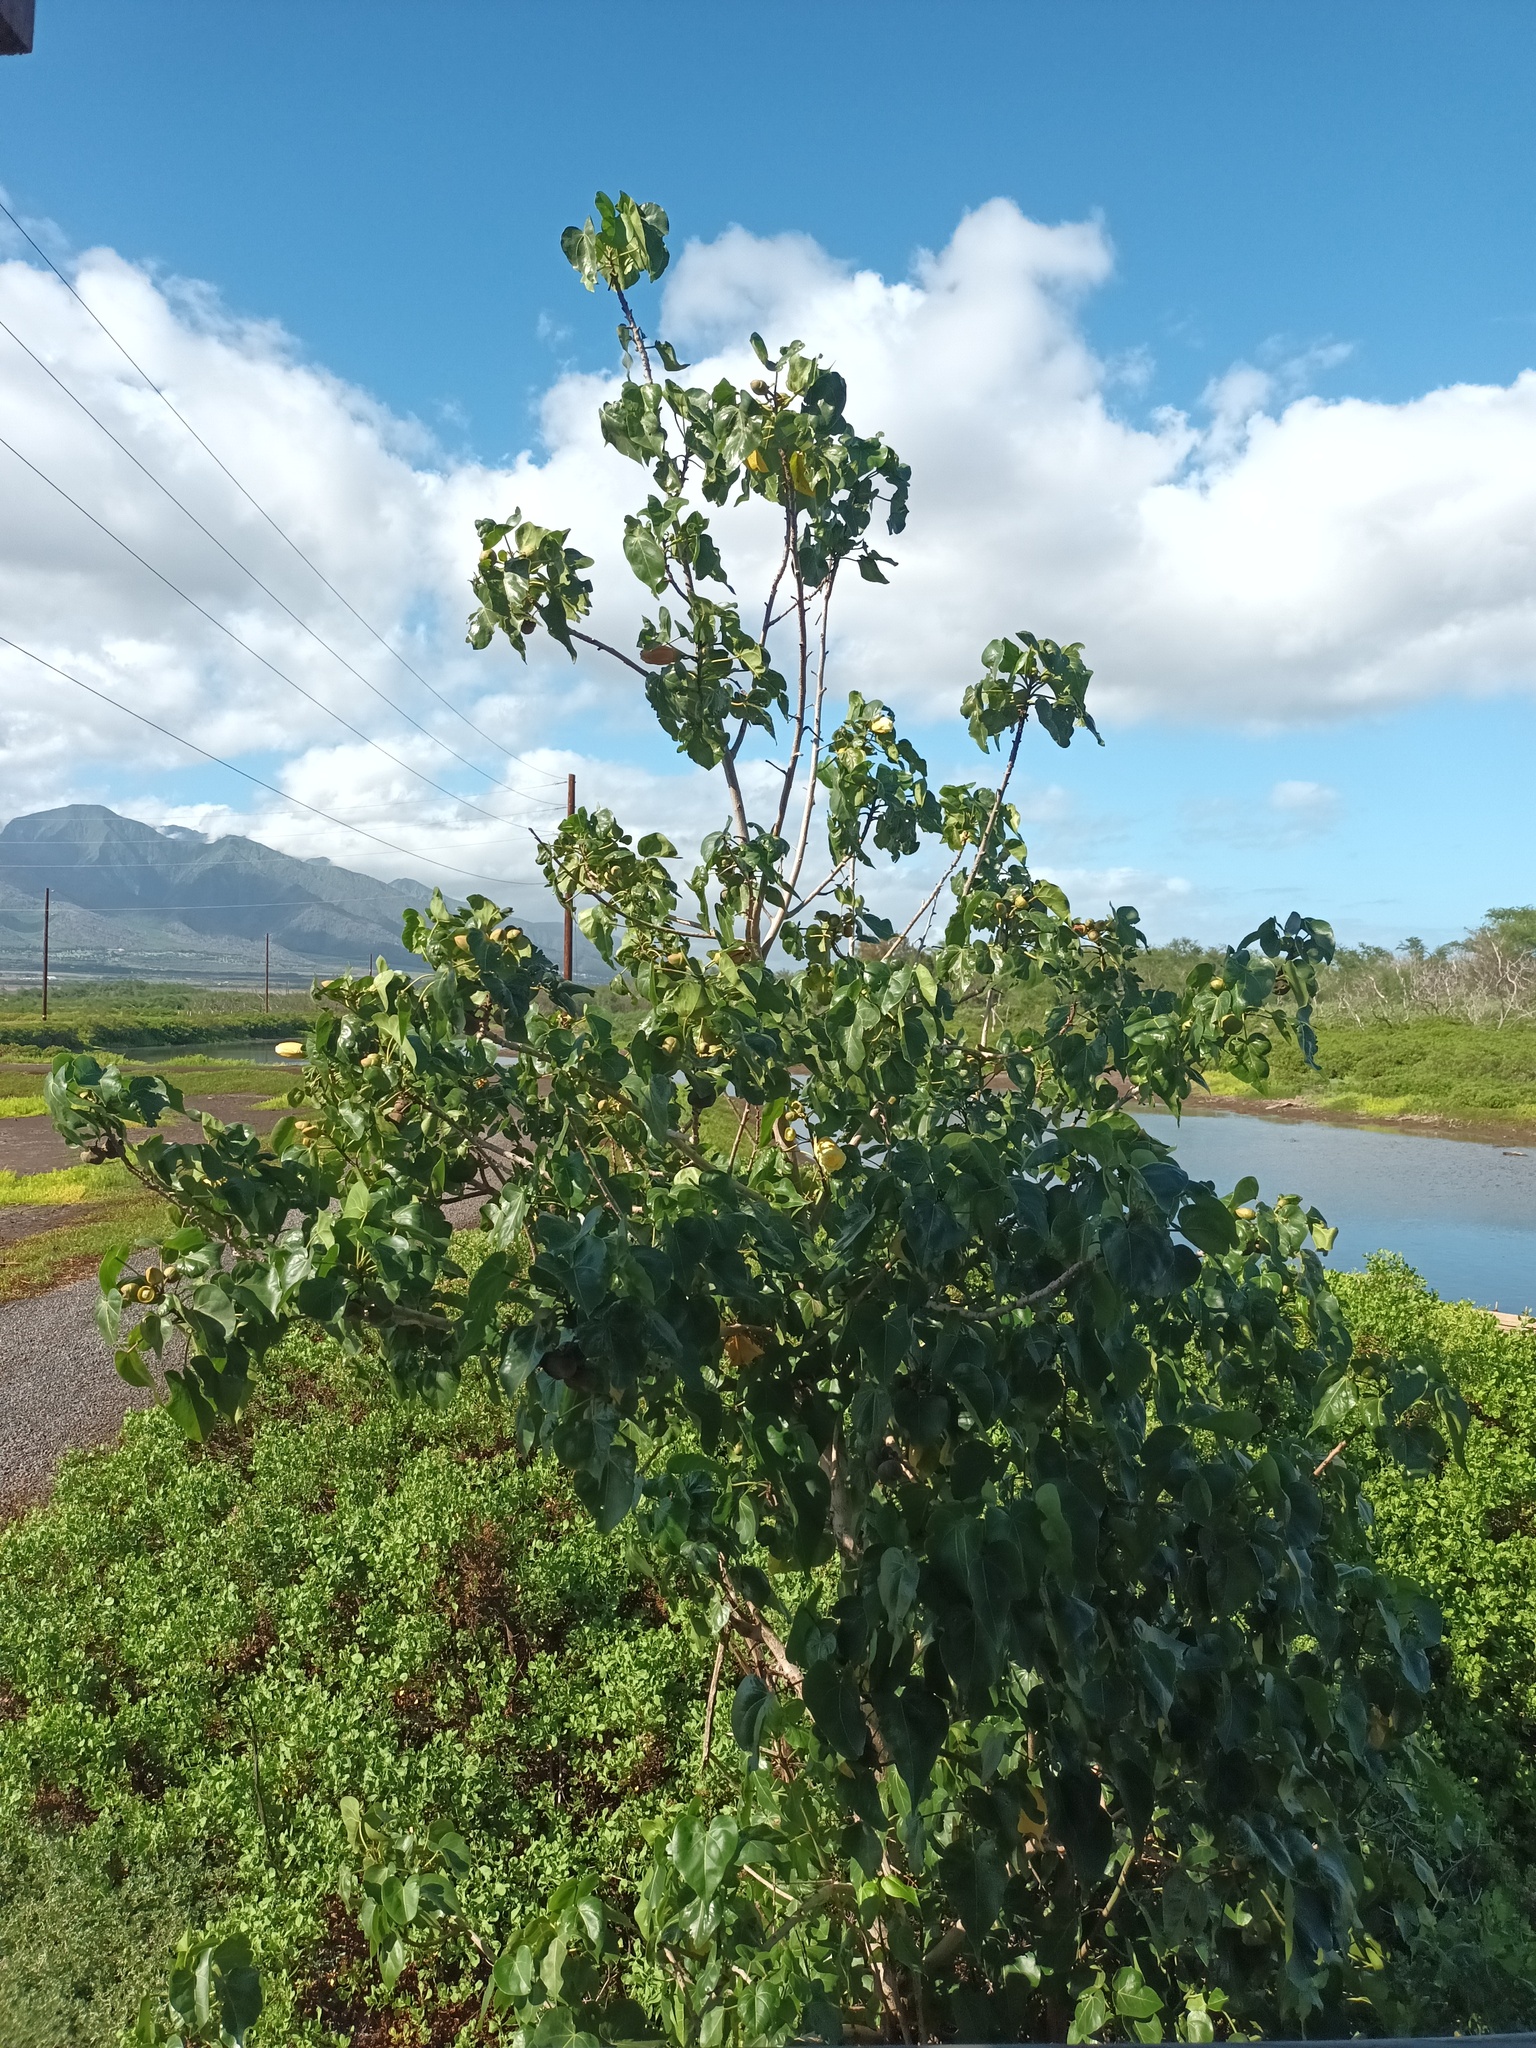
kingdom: Plantae
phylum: Tracheophyta
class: Magnoliopsida
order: Malvales
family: Malvaceae
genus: Thespesia
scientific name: Thespesia populnea
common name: Seaside mahoe
